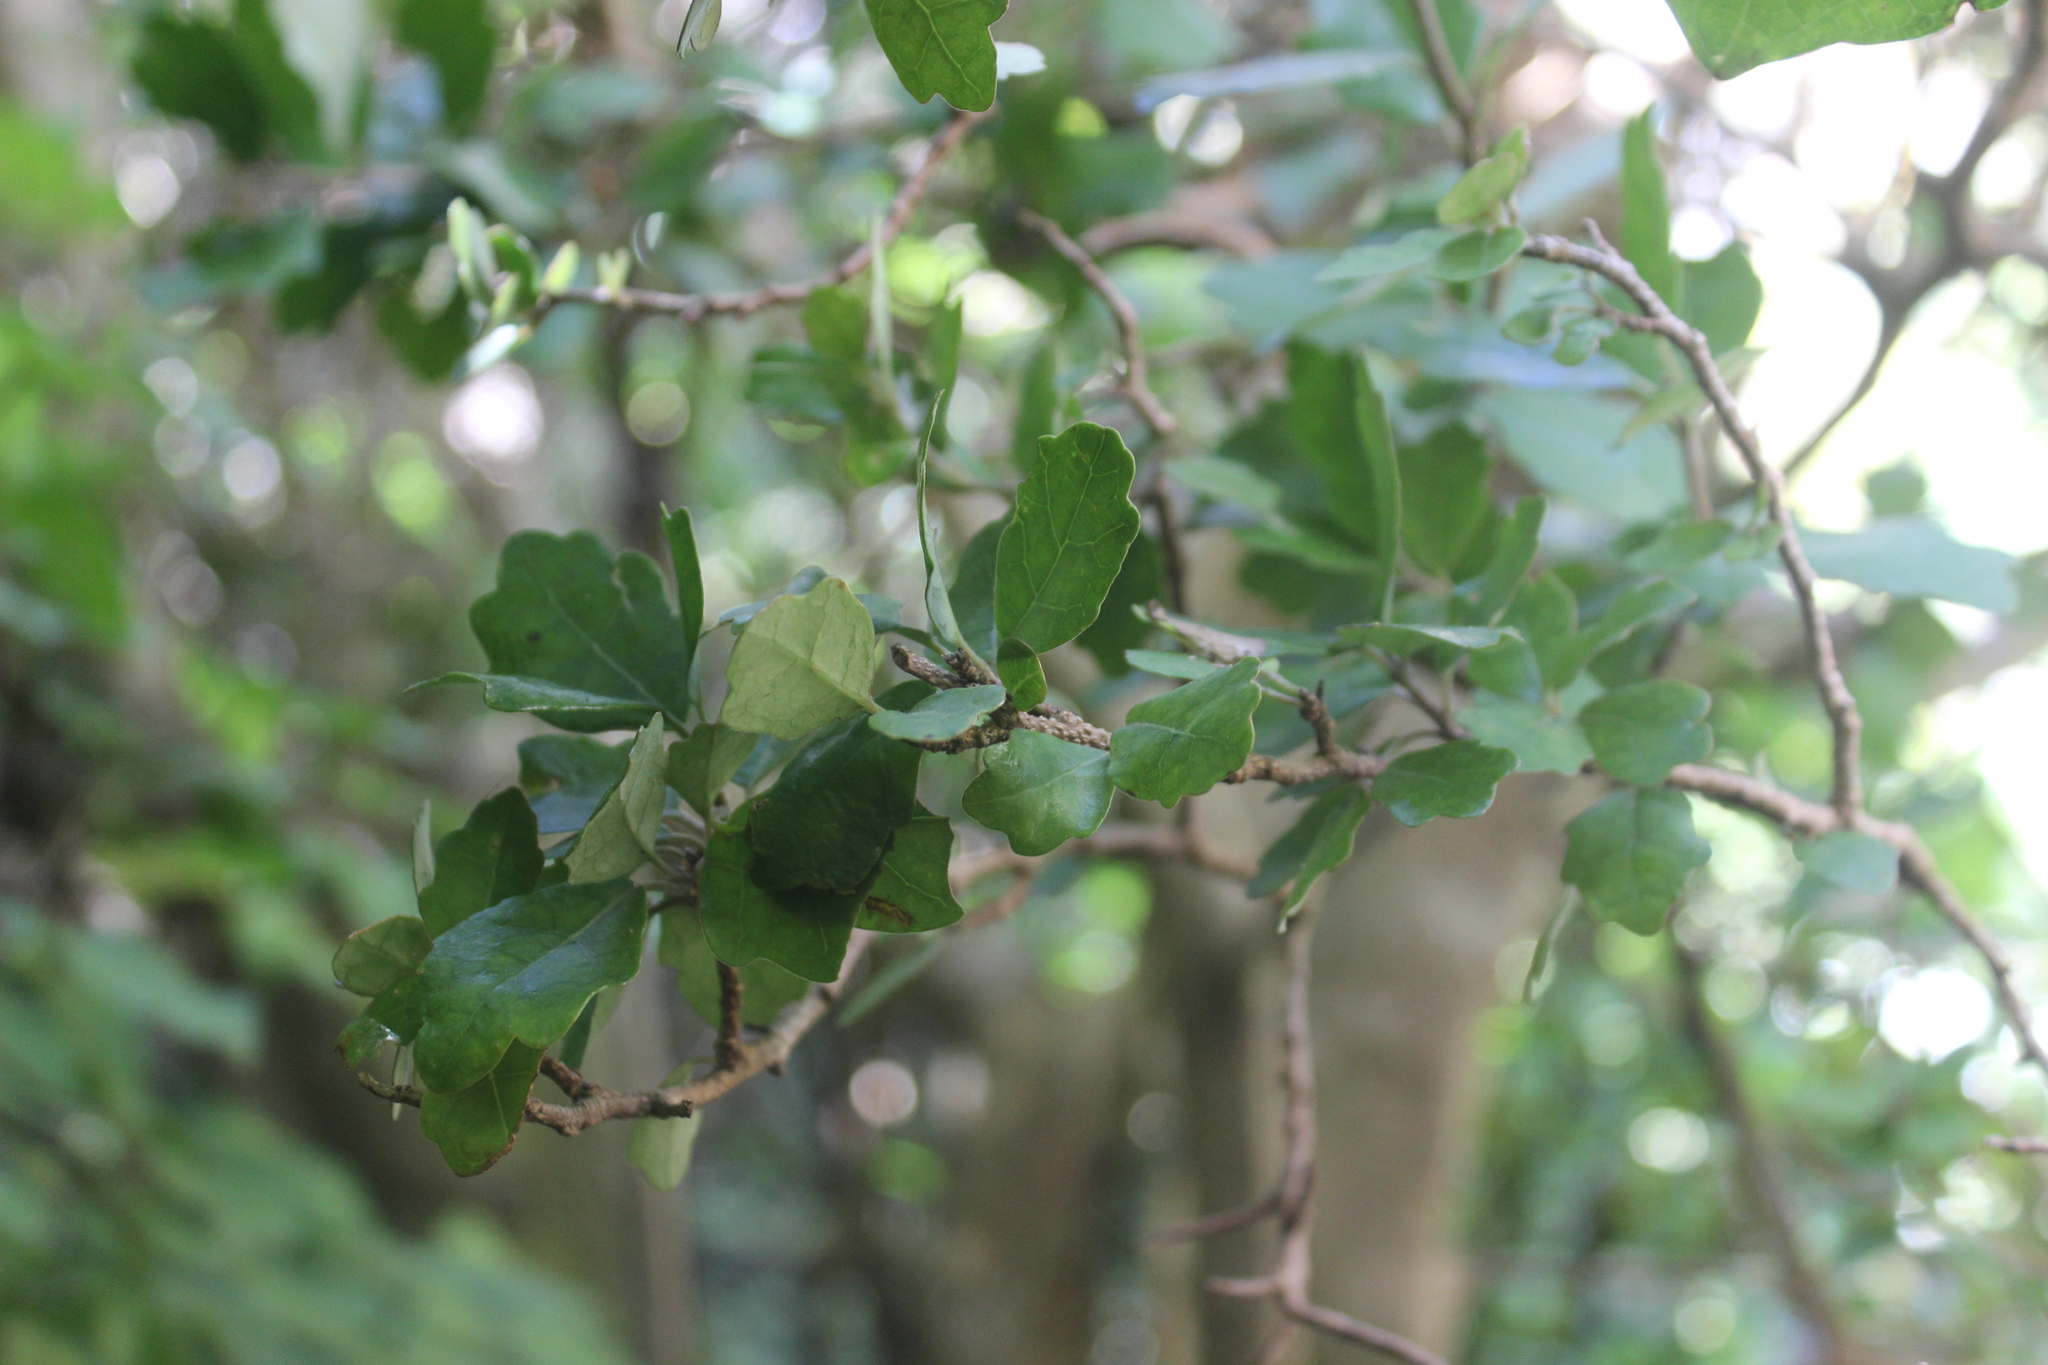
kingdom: Plantae
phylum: Tracheophyta
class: Magnoliopsida
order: Apiales
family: Pennantiaceae
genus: Pennantia
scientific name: Pennantia corymbosa
